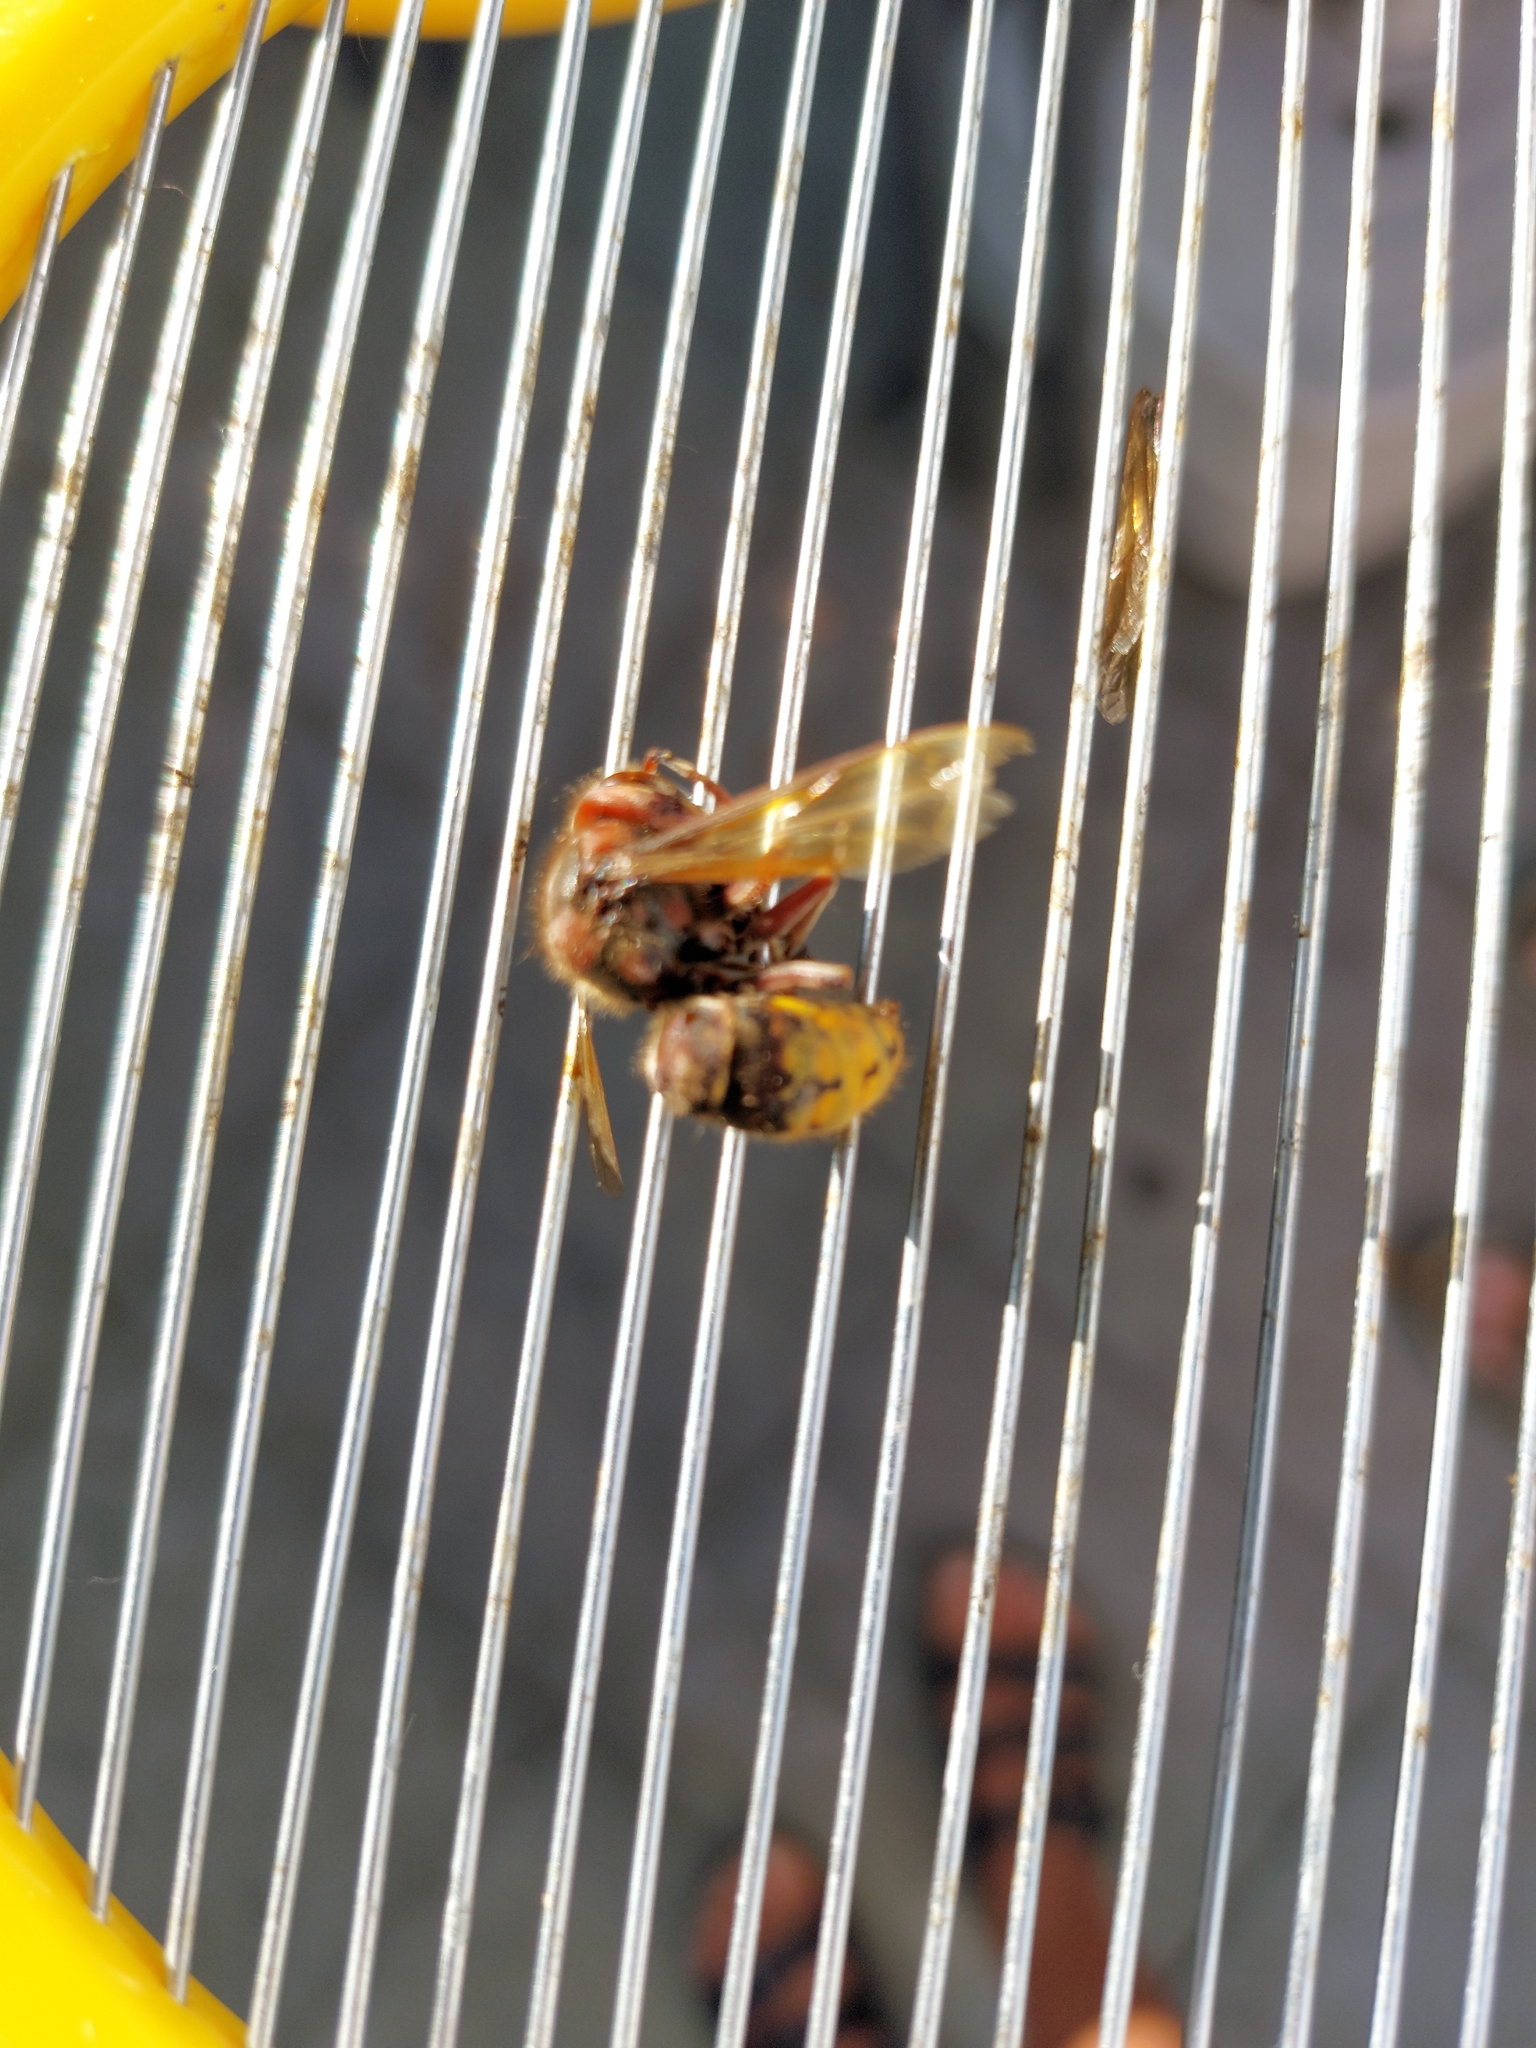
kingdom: Animalia
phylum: Arthropoda
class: Insecta
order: Hymenoptera
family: Vespidae
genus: Vespa
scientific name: Vespa crabro
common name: Hornet
